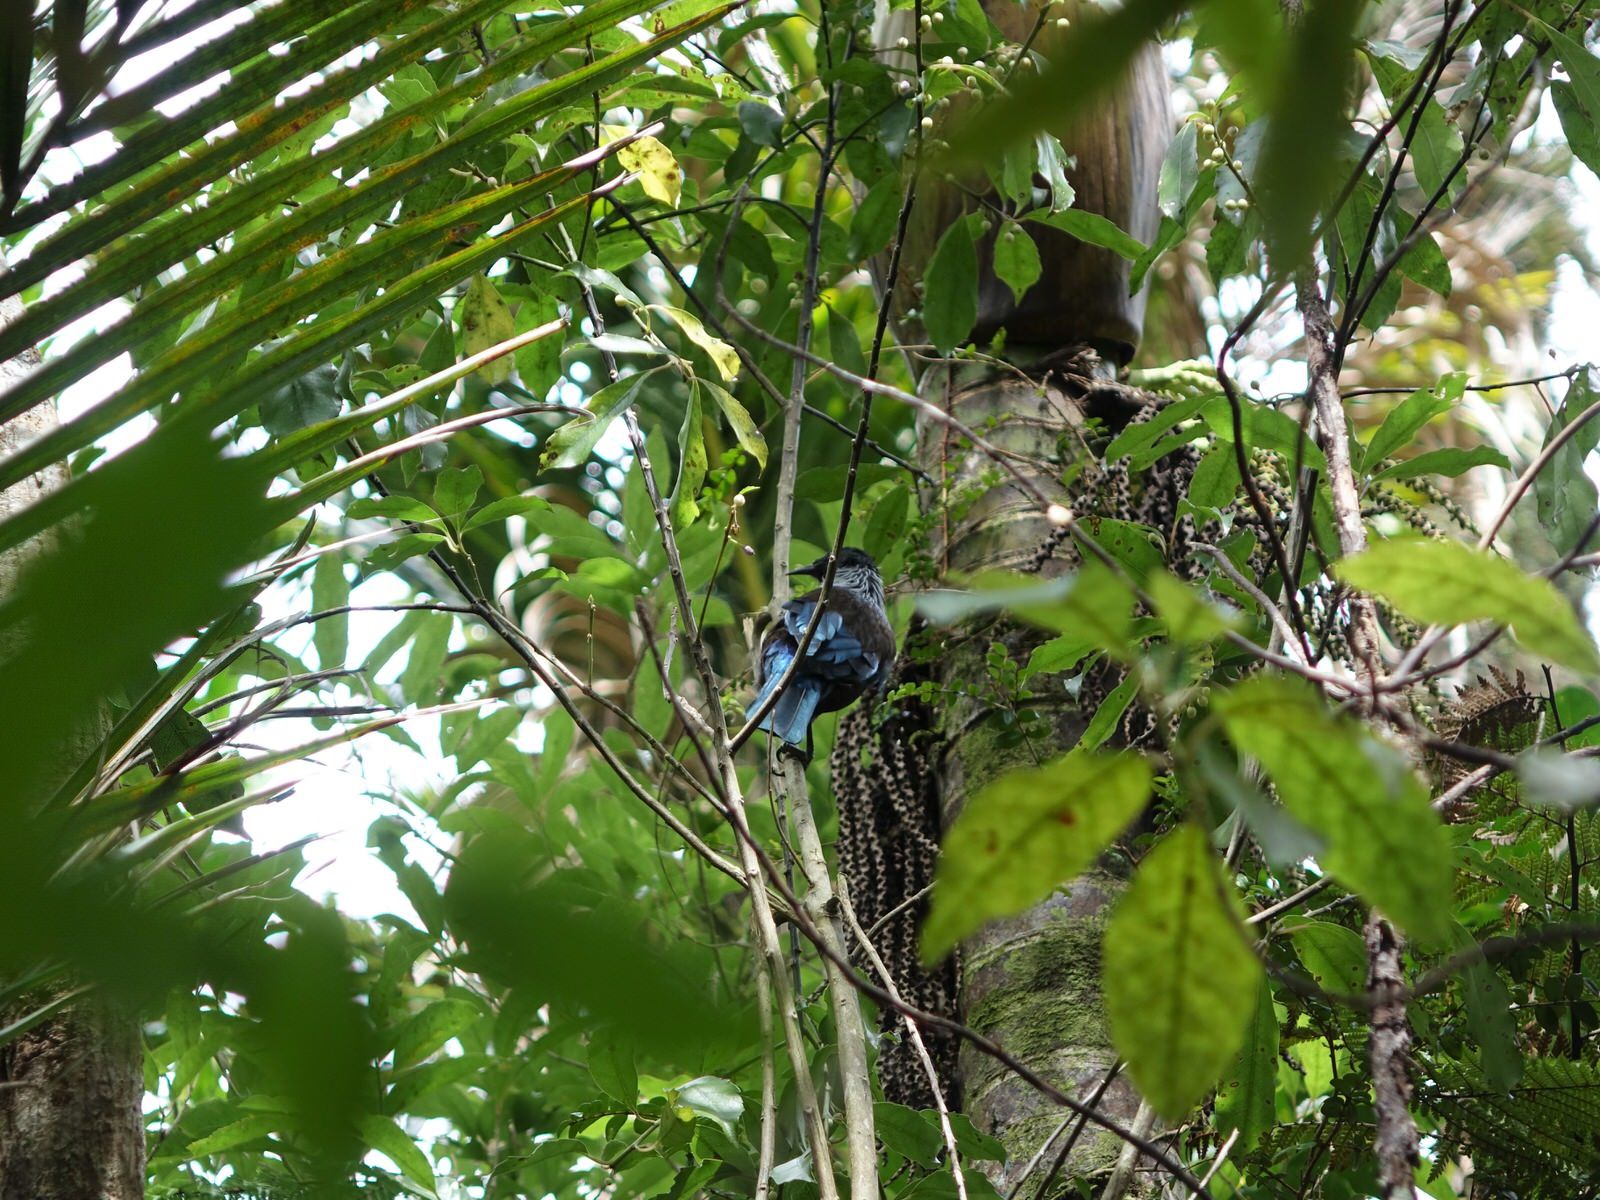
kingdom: Animalia
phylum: Chordata
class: Aves
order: Passeriformes
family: Meliphagidae
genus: Prosthemadera
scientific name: Prosthemadera novaeseelandiae
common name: Tui
